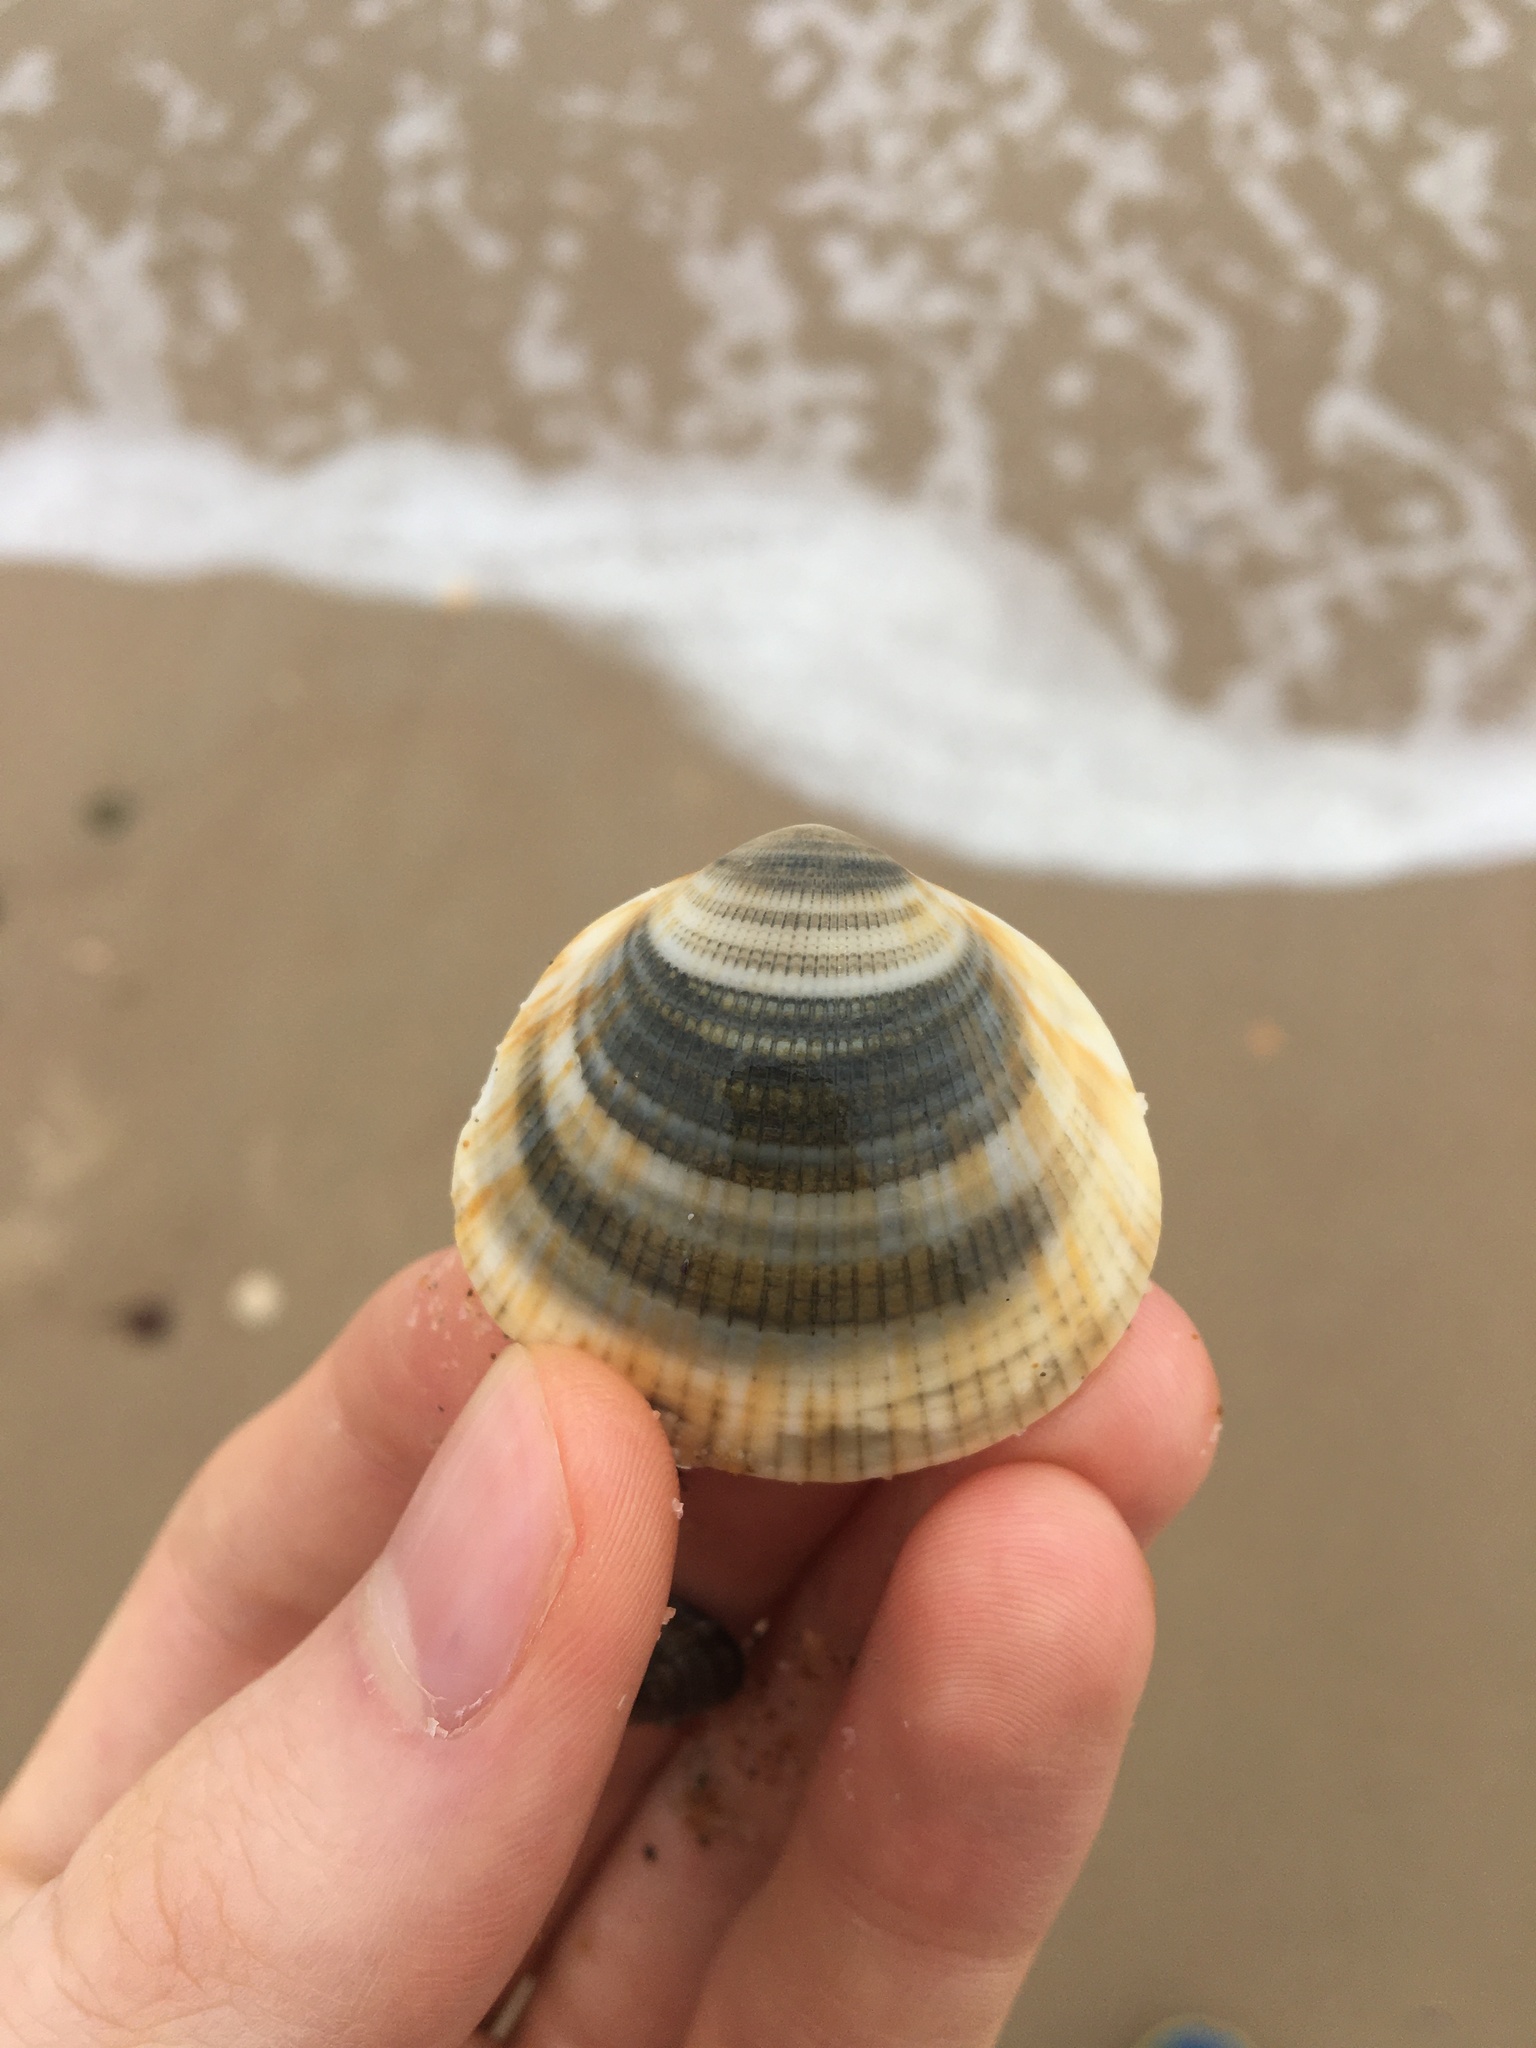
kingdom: Animalia
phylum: Mollusca
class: Bivalvia
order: Arcida
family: Glycymerididae
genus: Glycymeris
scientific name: Glycymeris grayana
